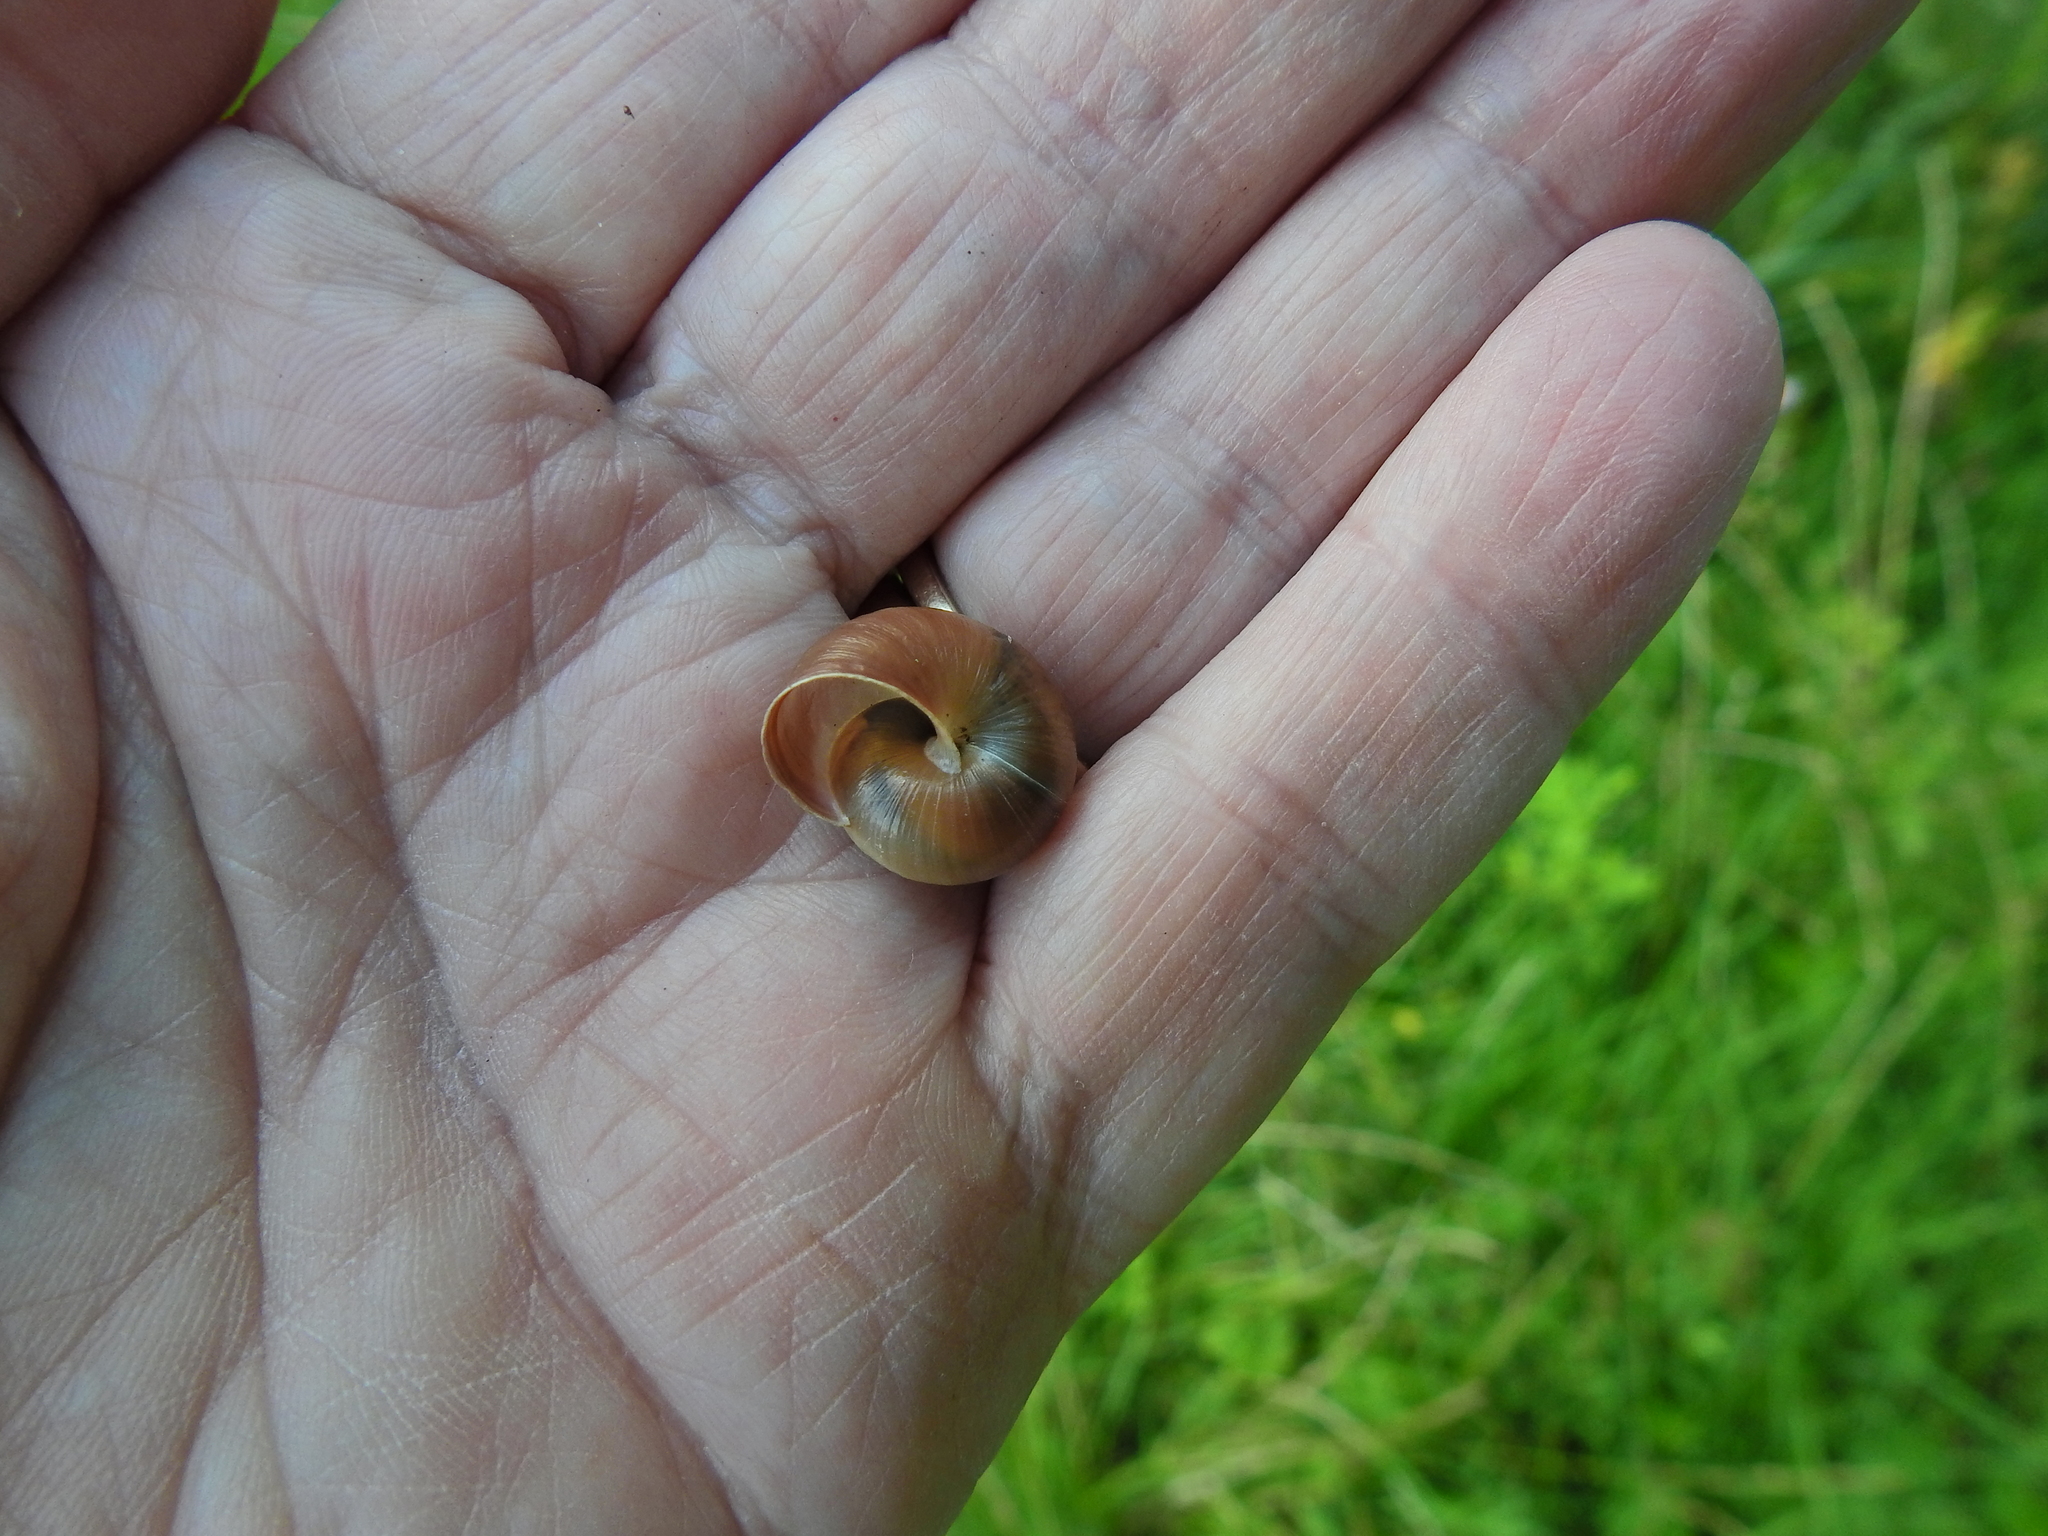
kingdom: Animalia
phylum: Mollusca
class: Gastropoda
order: Stylommatophora
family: Hygromiidae
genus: Monacha
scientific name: Monacha cantiana
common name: Kentish snail
